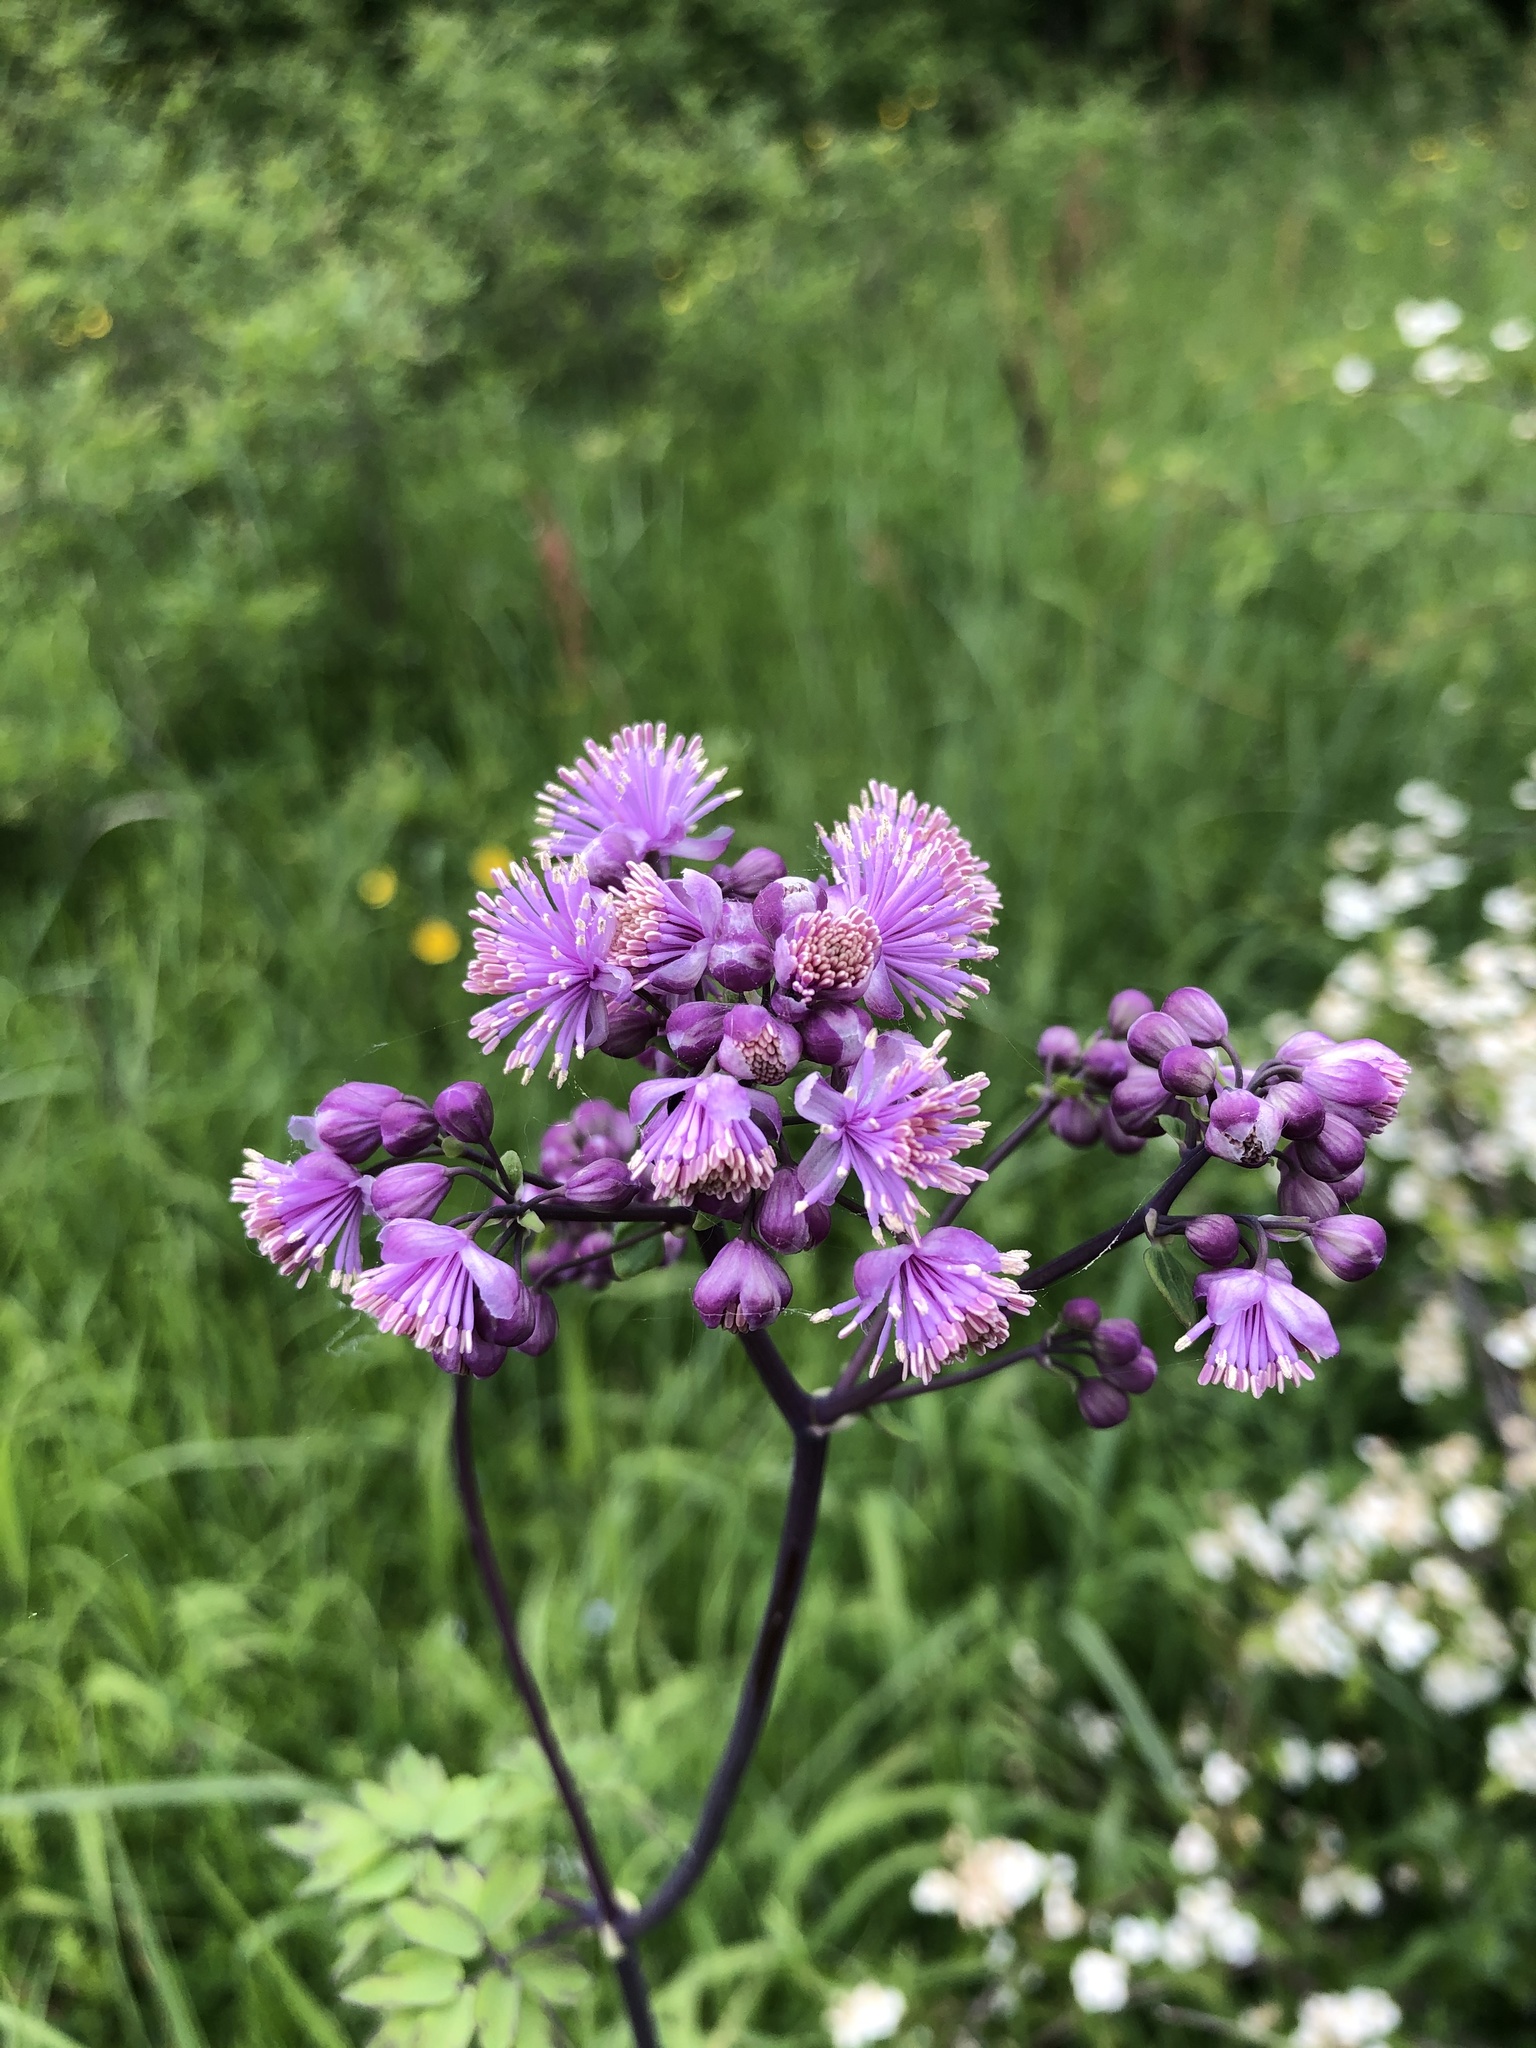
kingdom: Plantae
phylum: Tracheophyta
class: Magnoliopsida
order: Ranunculales
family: Ranunculaceae
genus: Thalictrum
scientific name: Thalictrum aquilegiifolium
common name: French meadow-rue
